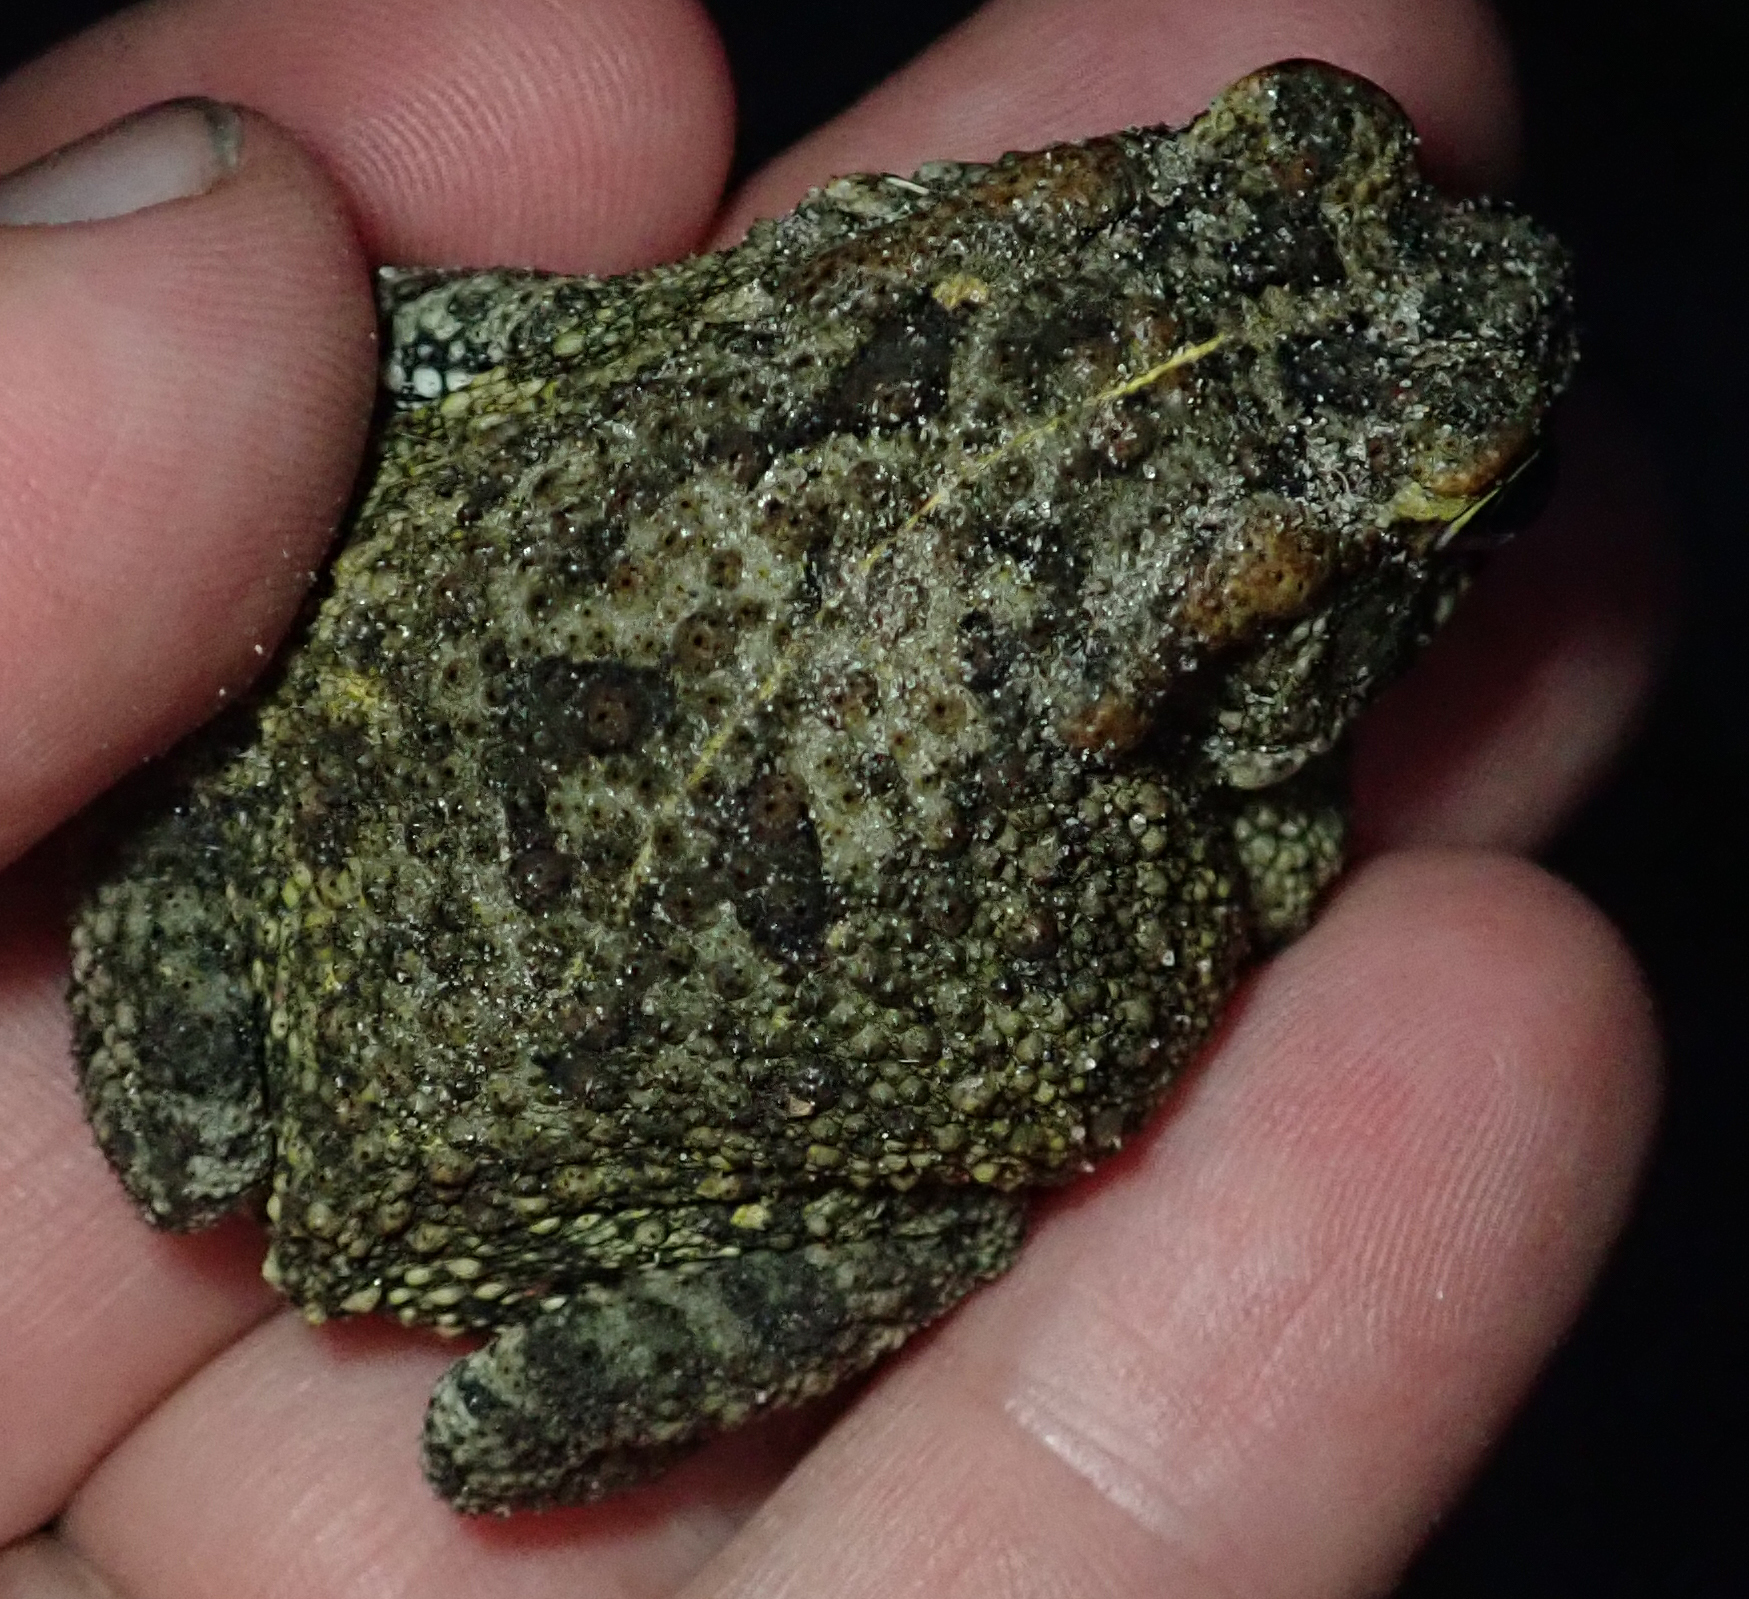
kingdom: Animalia
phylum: Chordata
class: Amphibia
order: Anura
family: Bufonidae
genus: Sclerophrys
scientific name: Sclerophrys gutturalis
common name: African common toad
